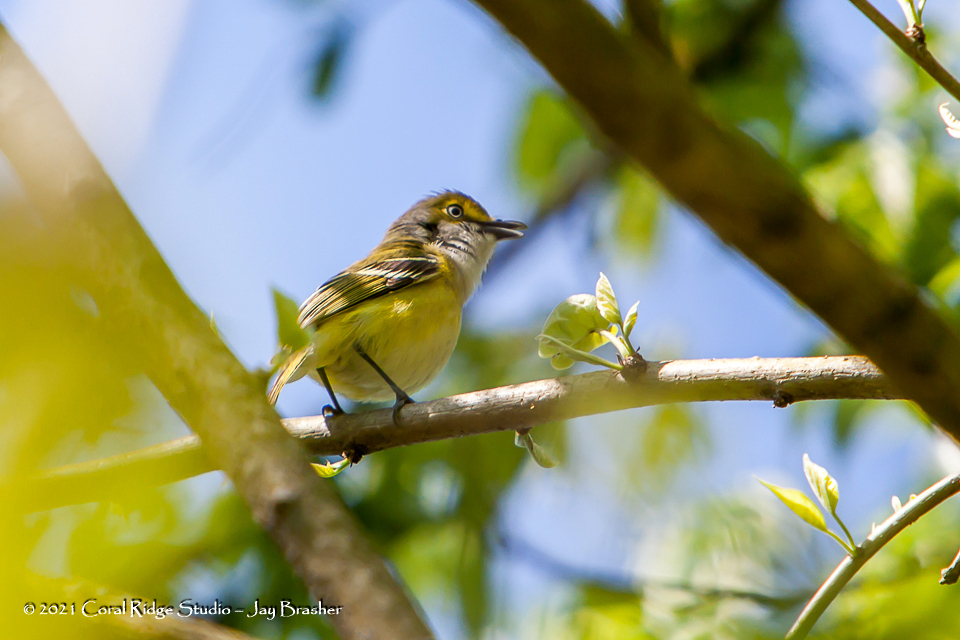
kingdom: Animalia
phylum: Chordata
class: Aves
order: Passeriformes
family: Vireonidae
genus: Vireo
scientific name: Vireo griseus
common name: White-eyed vireo
